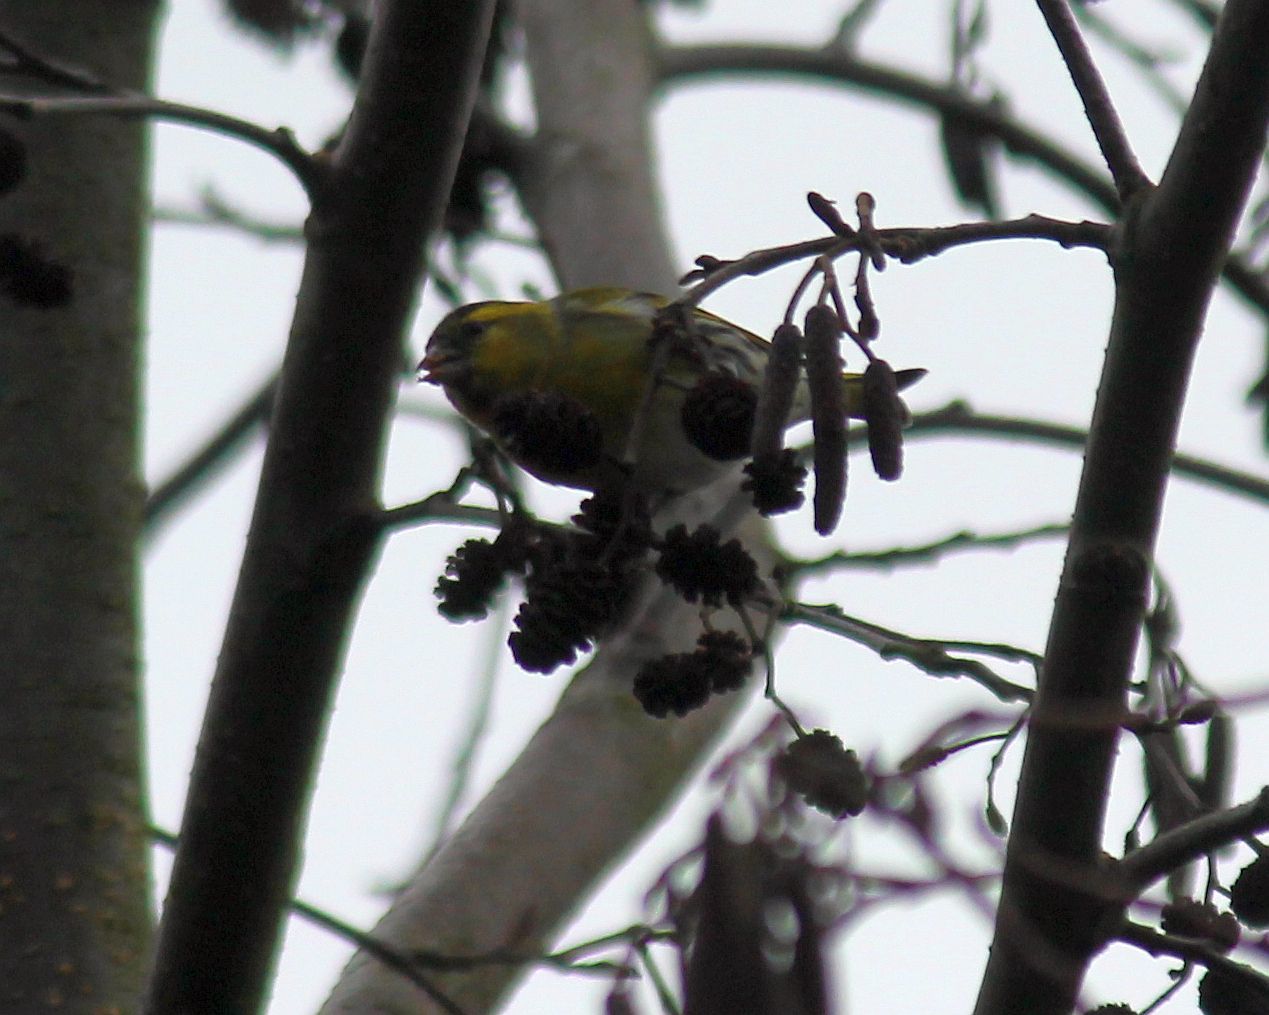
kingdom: Animalia
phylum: Chordata
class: Aves
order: Passeriformes
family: Fringillidae
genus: Spinus
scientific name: Spinus spinus
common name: Eurasian siskin
